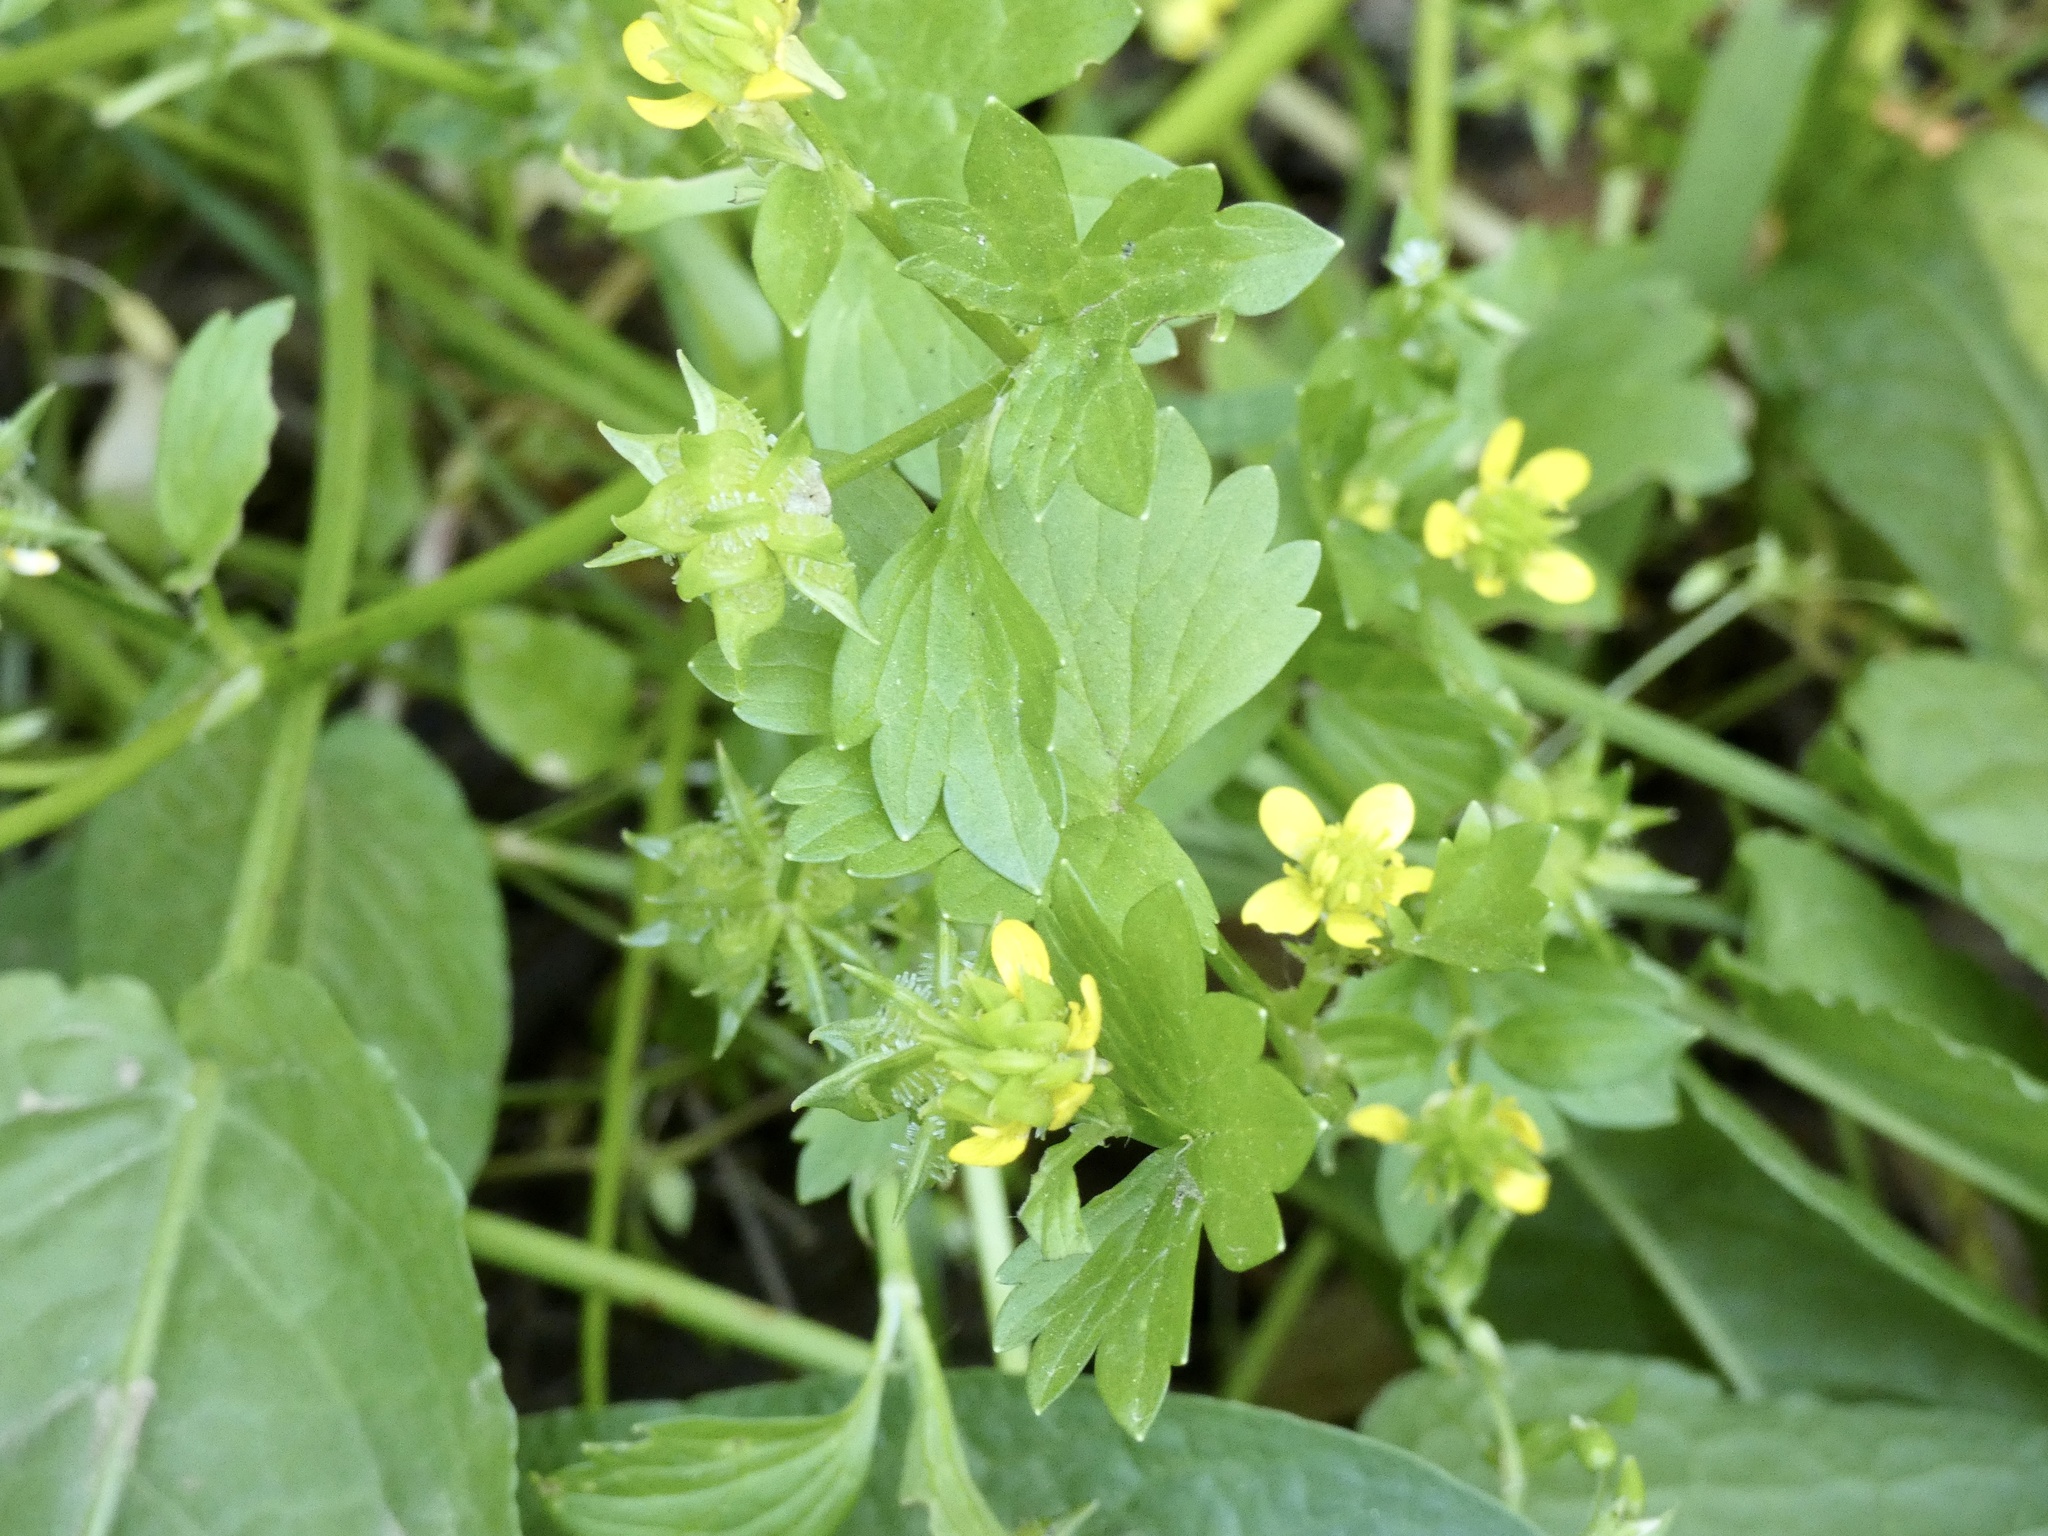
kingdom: Plantae
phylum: Tracheophyta
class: Magnoliopsida
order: Ranunculales
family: Ranunculaceae
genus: Ranunculus
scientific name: Ranunculus muricatus
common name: Rough-fruited buttercup
